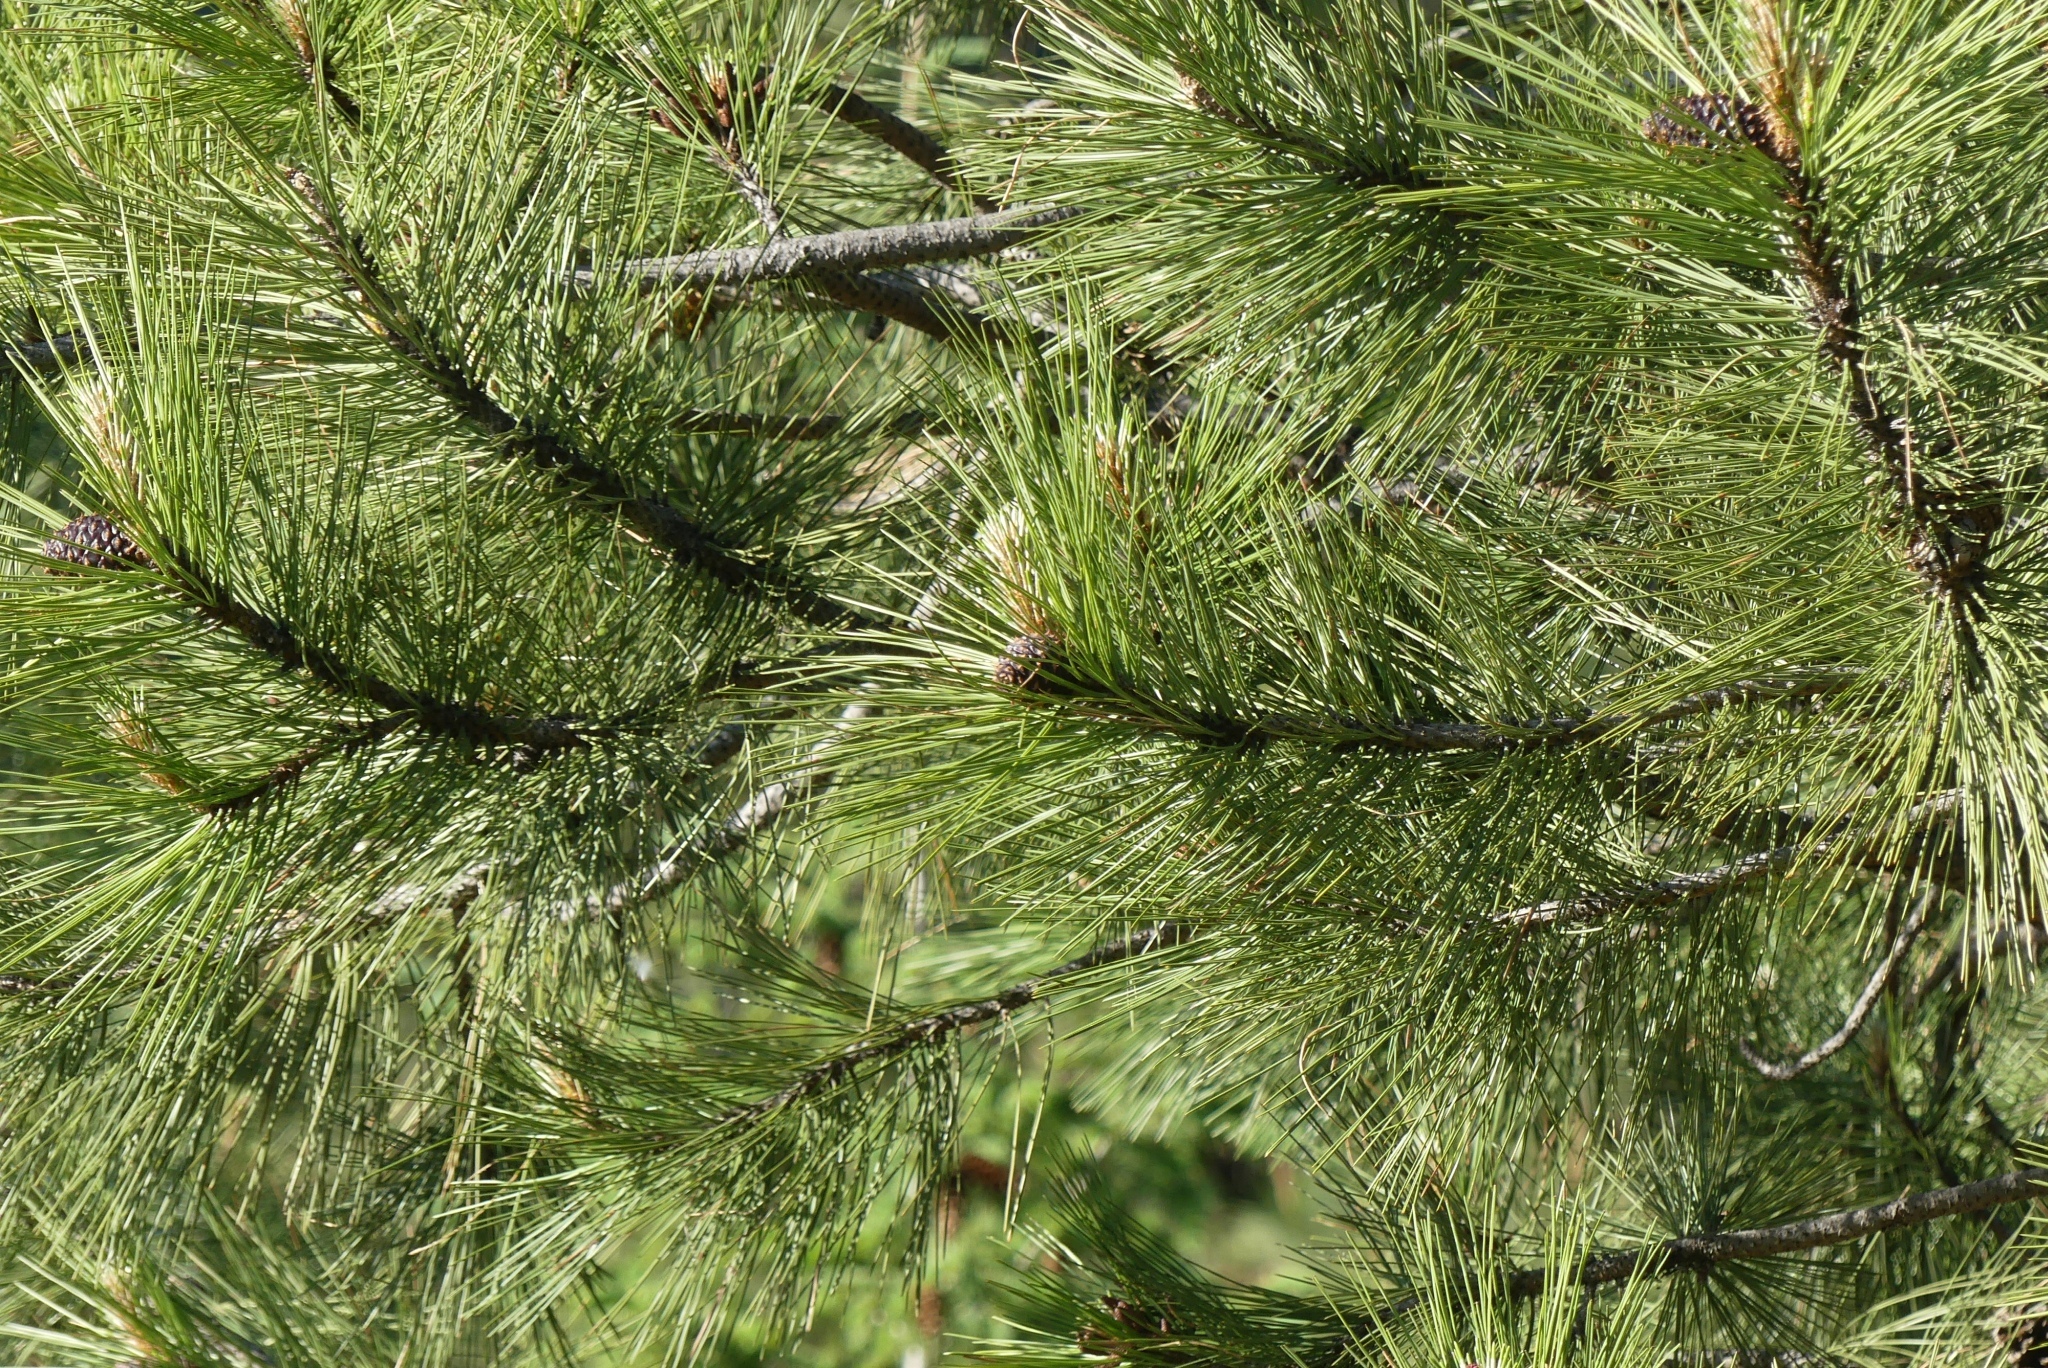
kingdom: Plantae
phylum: Tracheophyta
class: Pinopsida
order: Pinales
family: Pinaceae
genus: Pinus
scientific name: Pinus ponderosa
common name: Western yellow-pine
